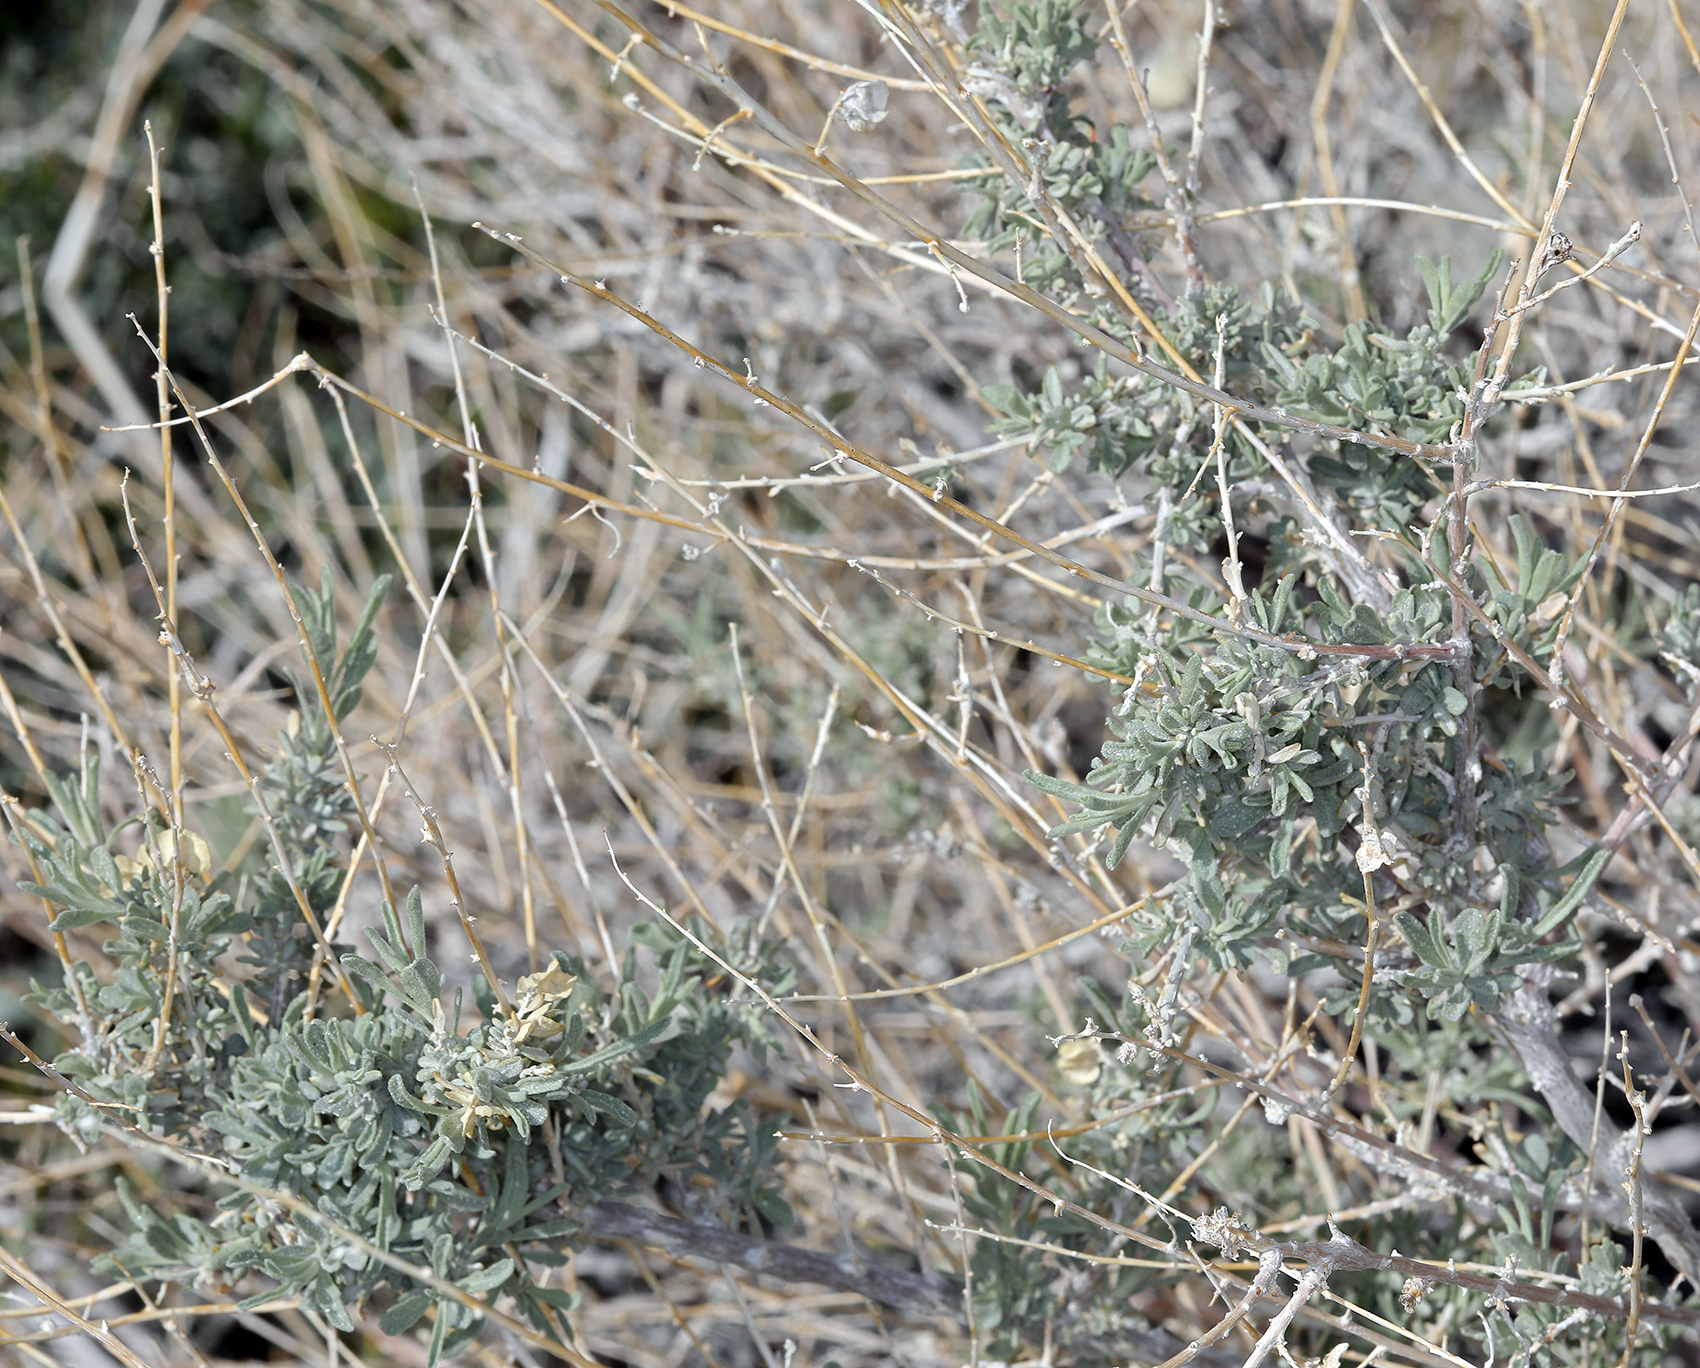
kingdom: Plantae
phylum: Tracheophyta
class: Magnoliopsida
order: Caryophyllales
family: Amaranthaceae
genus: Atriplex
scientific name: Atriplex canescens
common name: Four-wing saltbush
